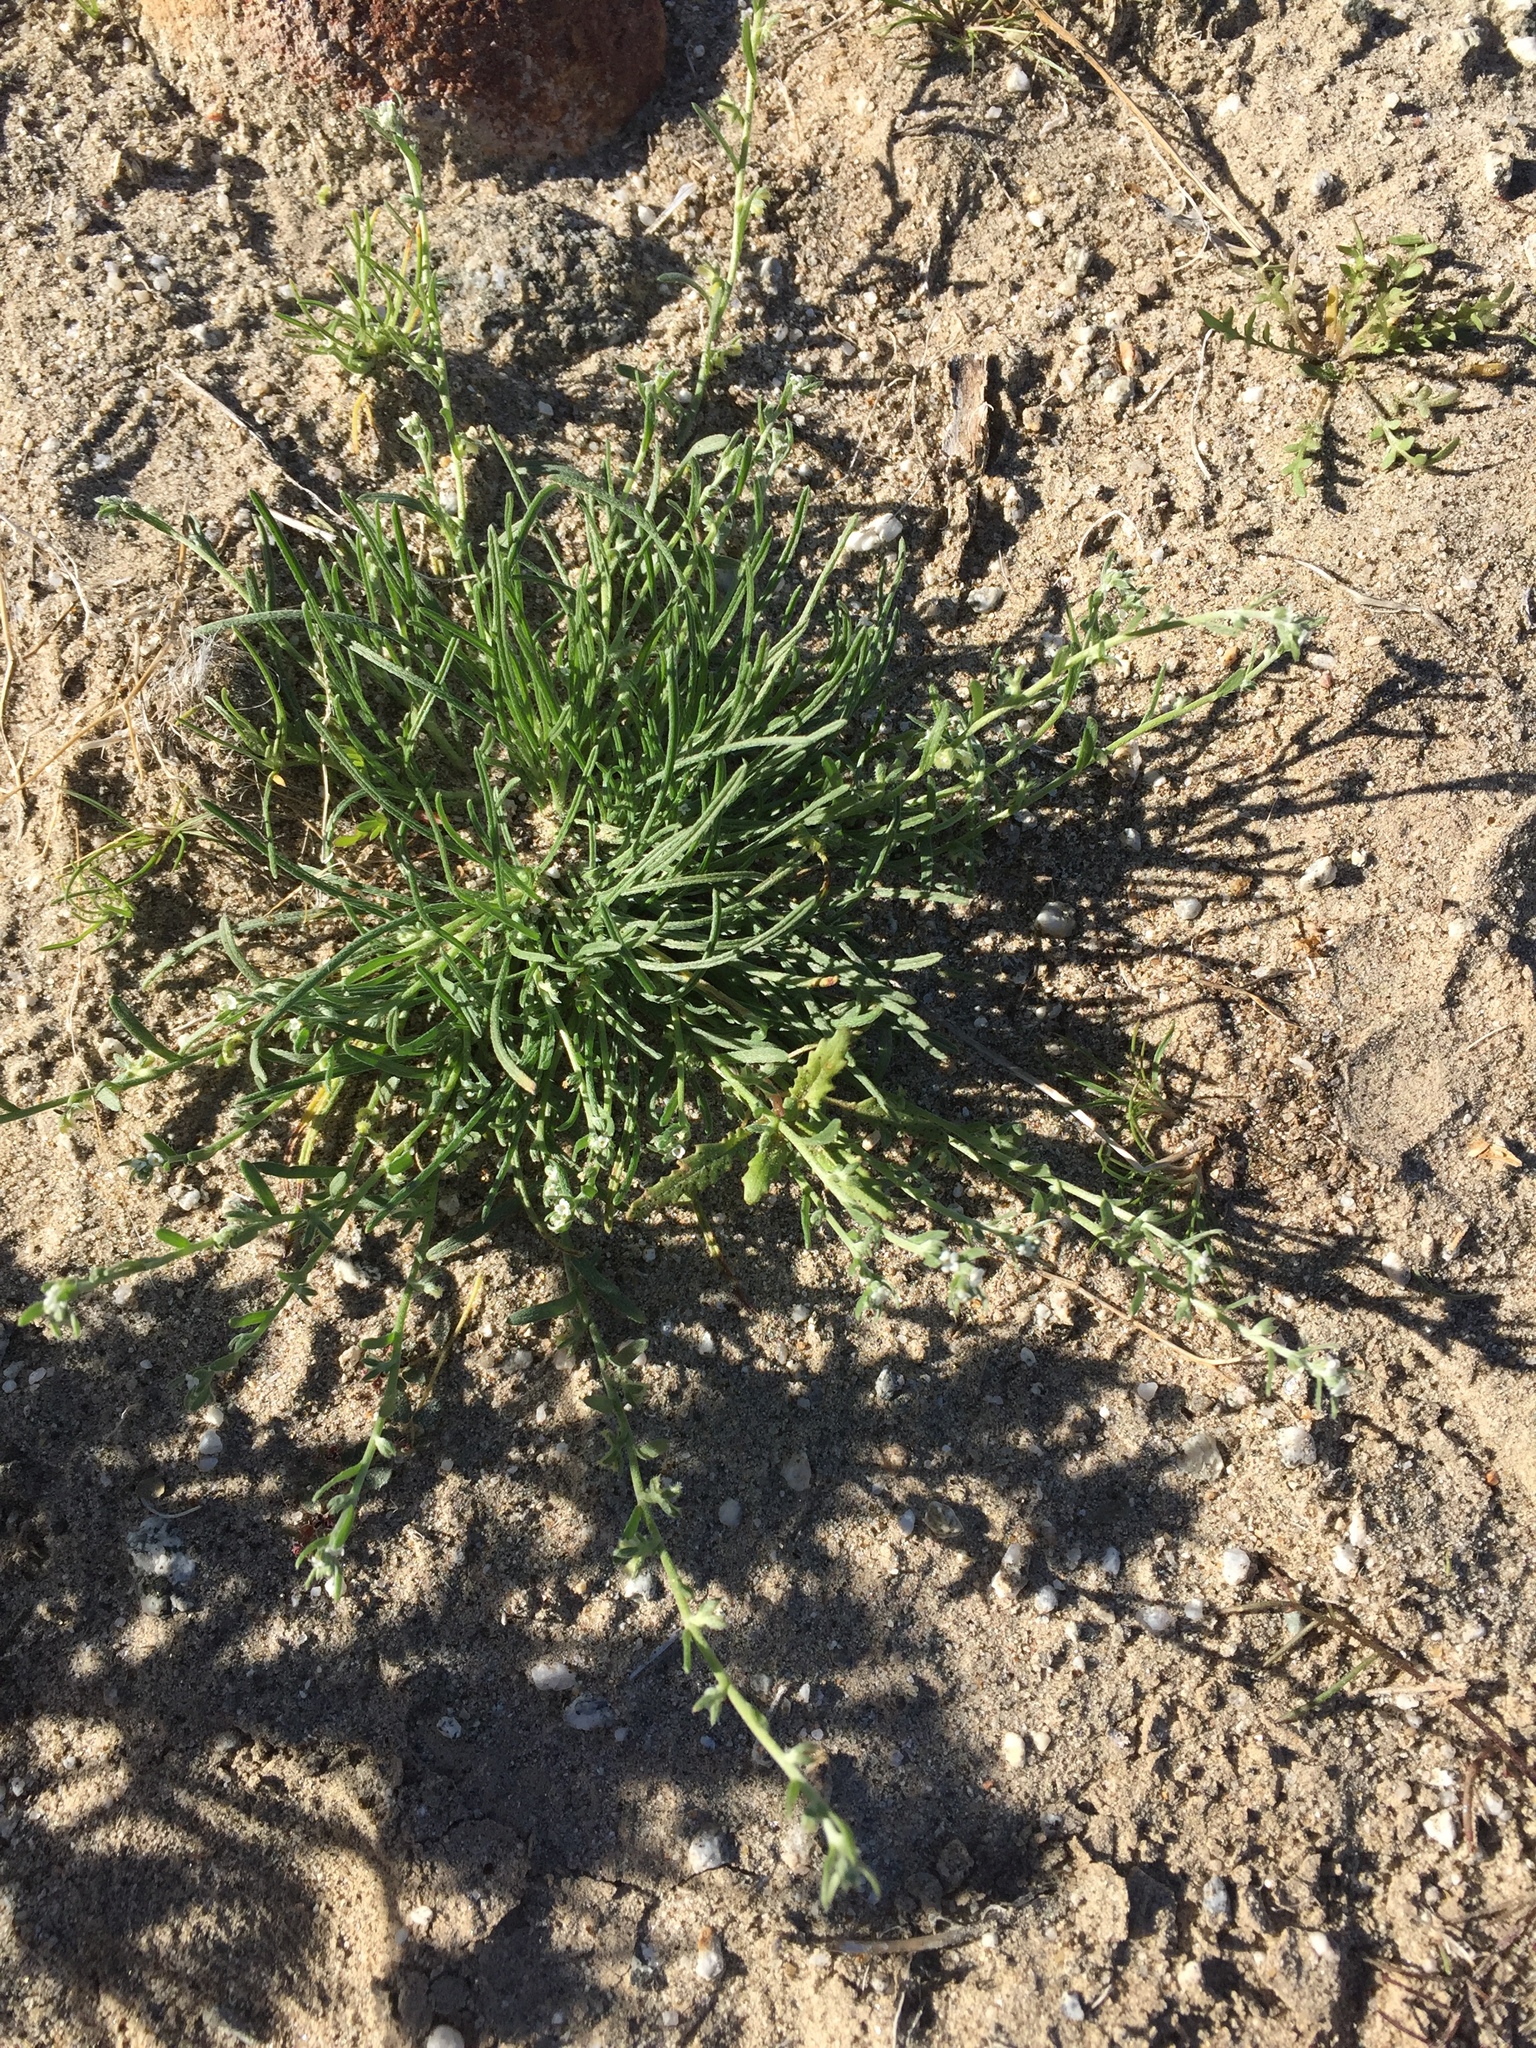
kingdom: Plantae
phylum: Tracheophyta
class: Magnoliopsida
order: Boraginales
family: Boraginaceae
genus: Pectocarya
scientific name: Pectocarya heterocarpa
